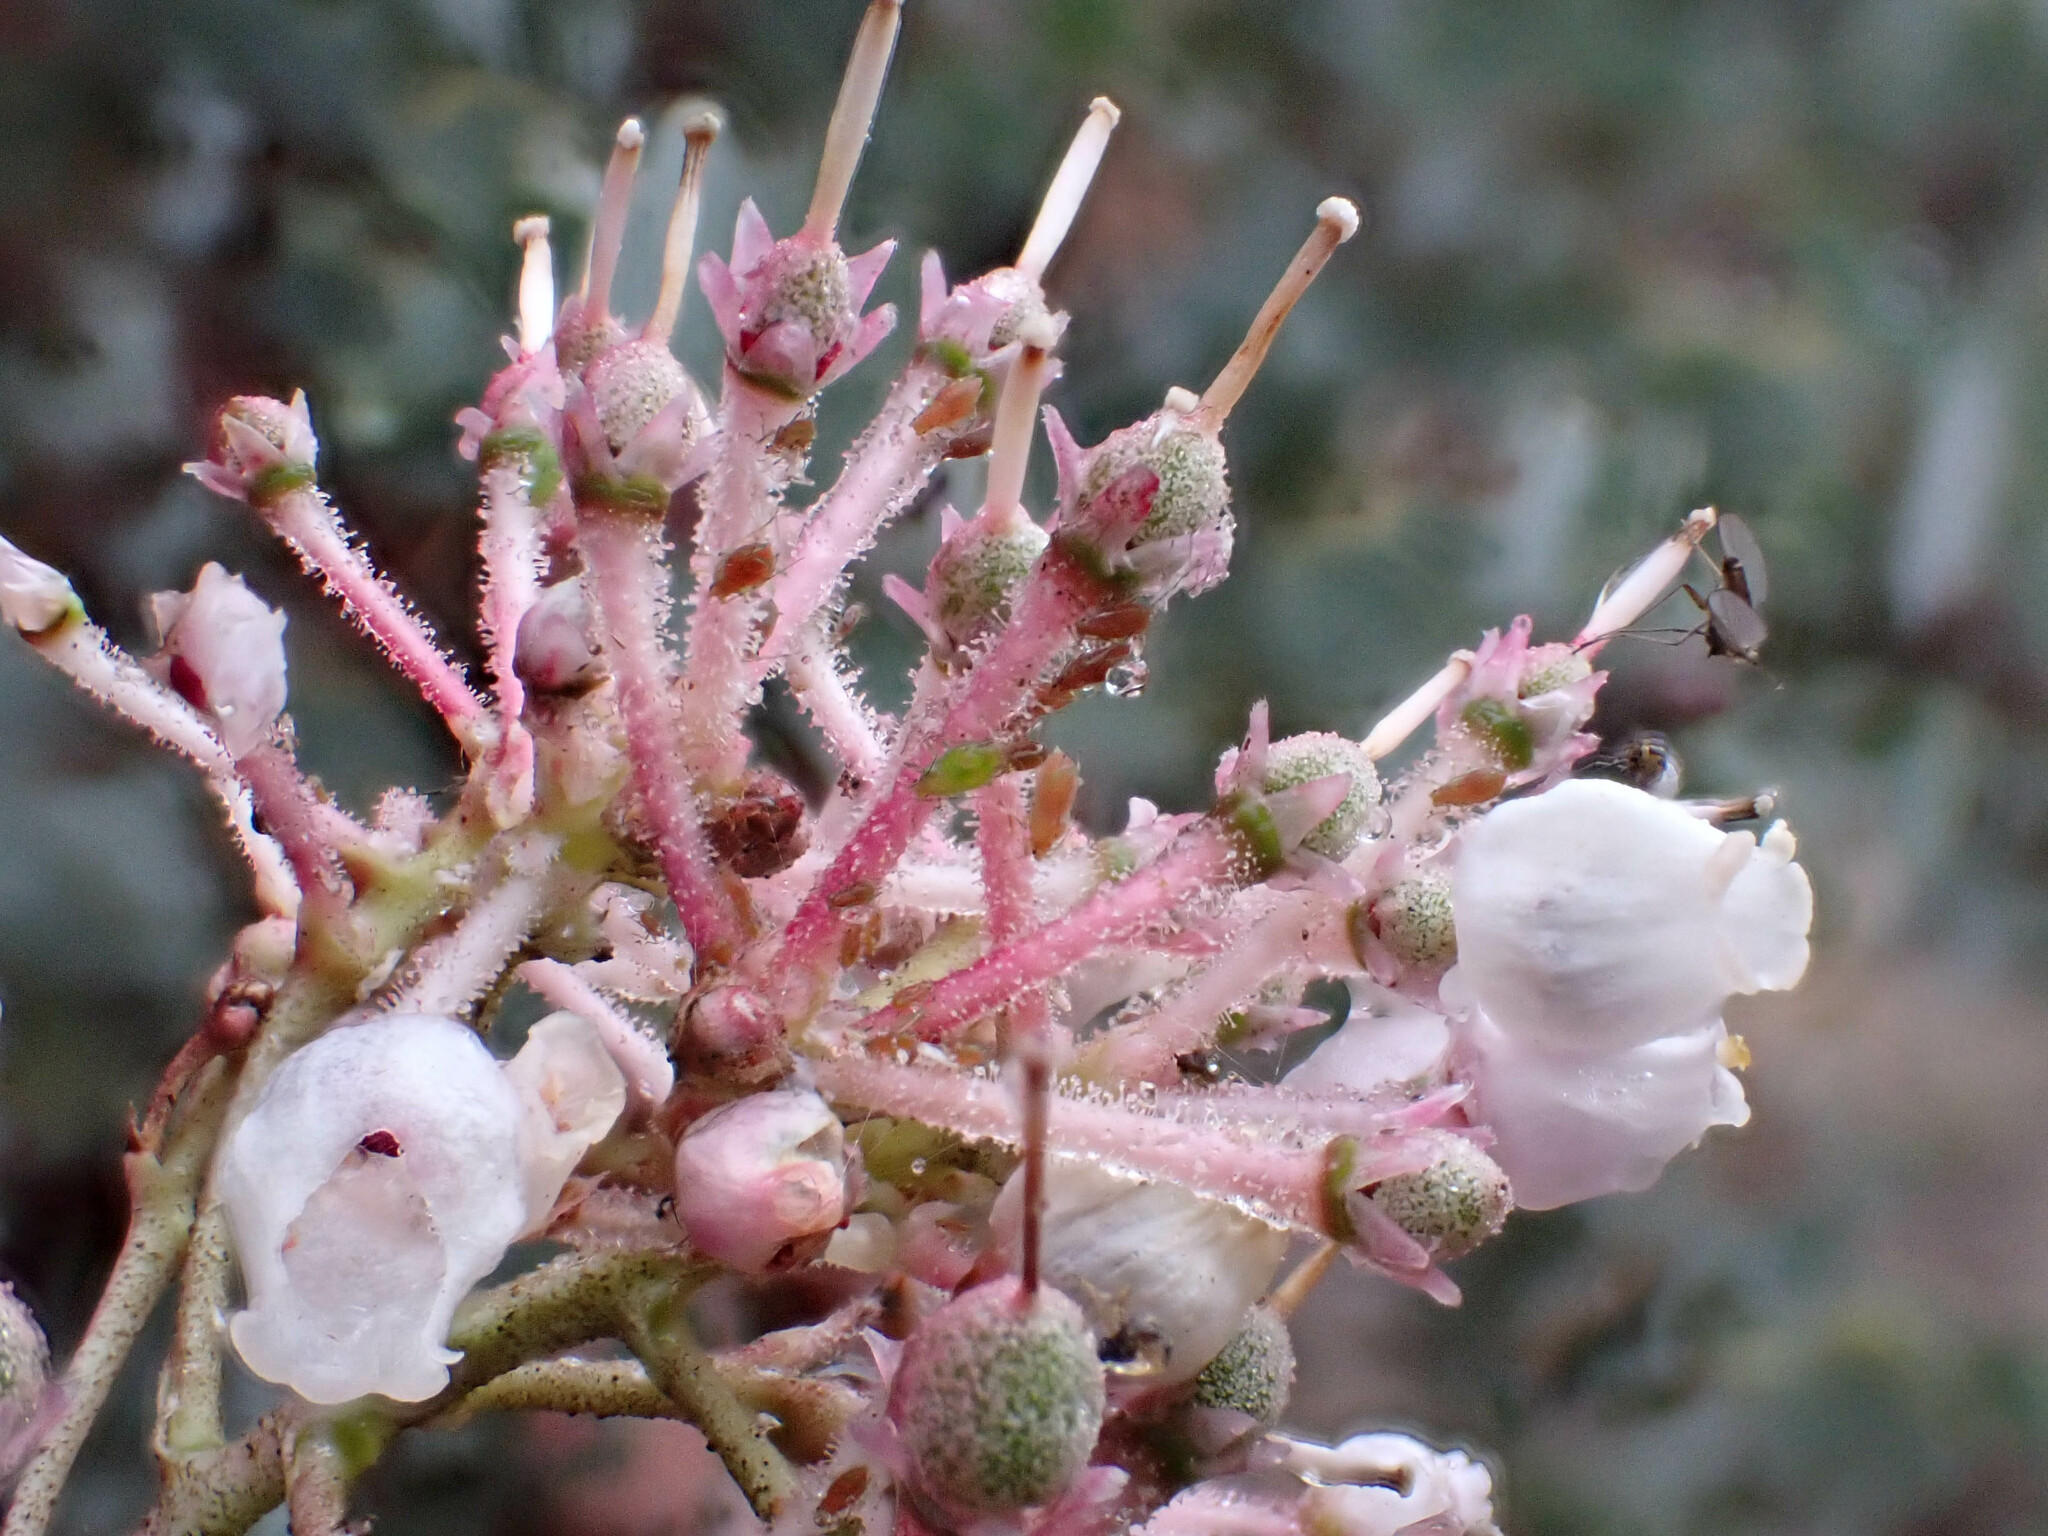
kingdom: Plantae
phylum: Tracheophyta
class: Magnoliopsida
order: Ericales
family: Ericaceae
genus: Arctostaphylos
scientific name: Arctostaphylos viscida
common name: White-leaf manzanita
